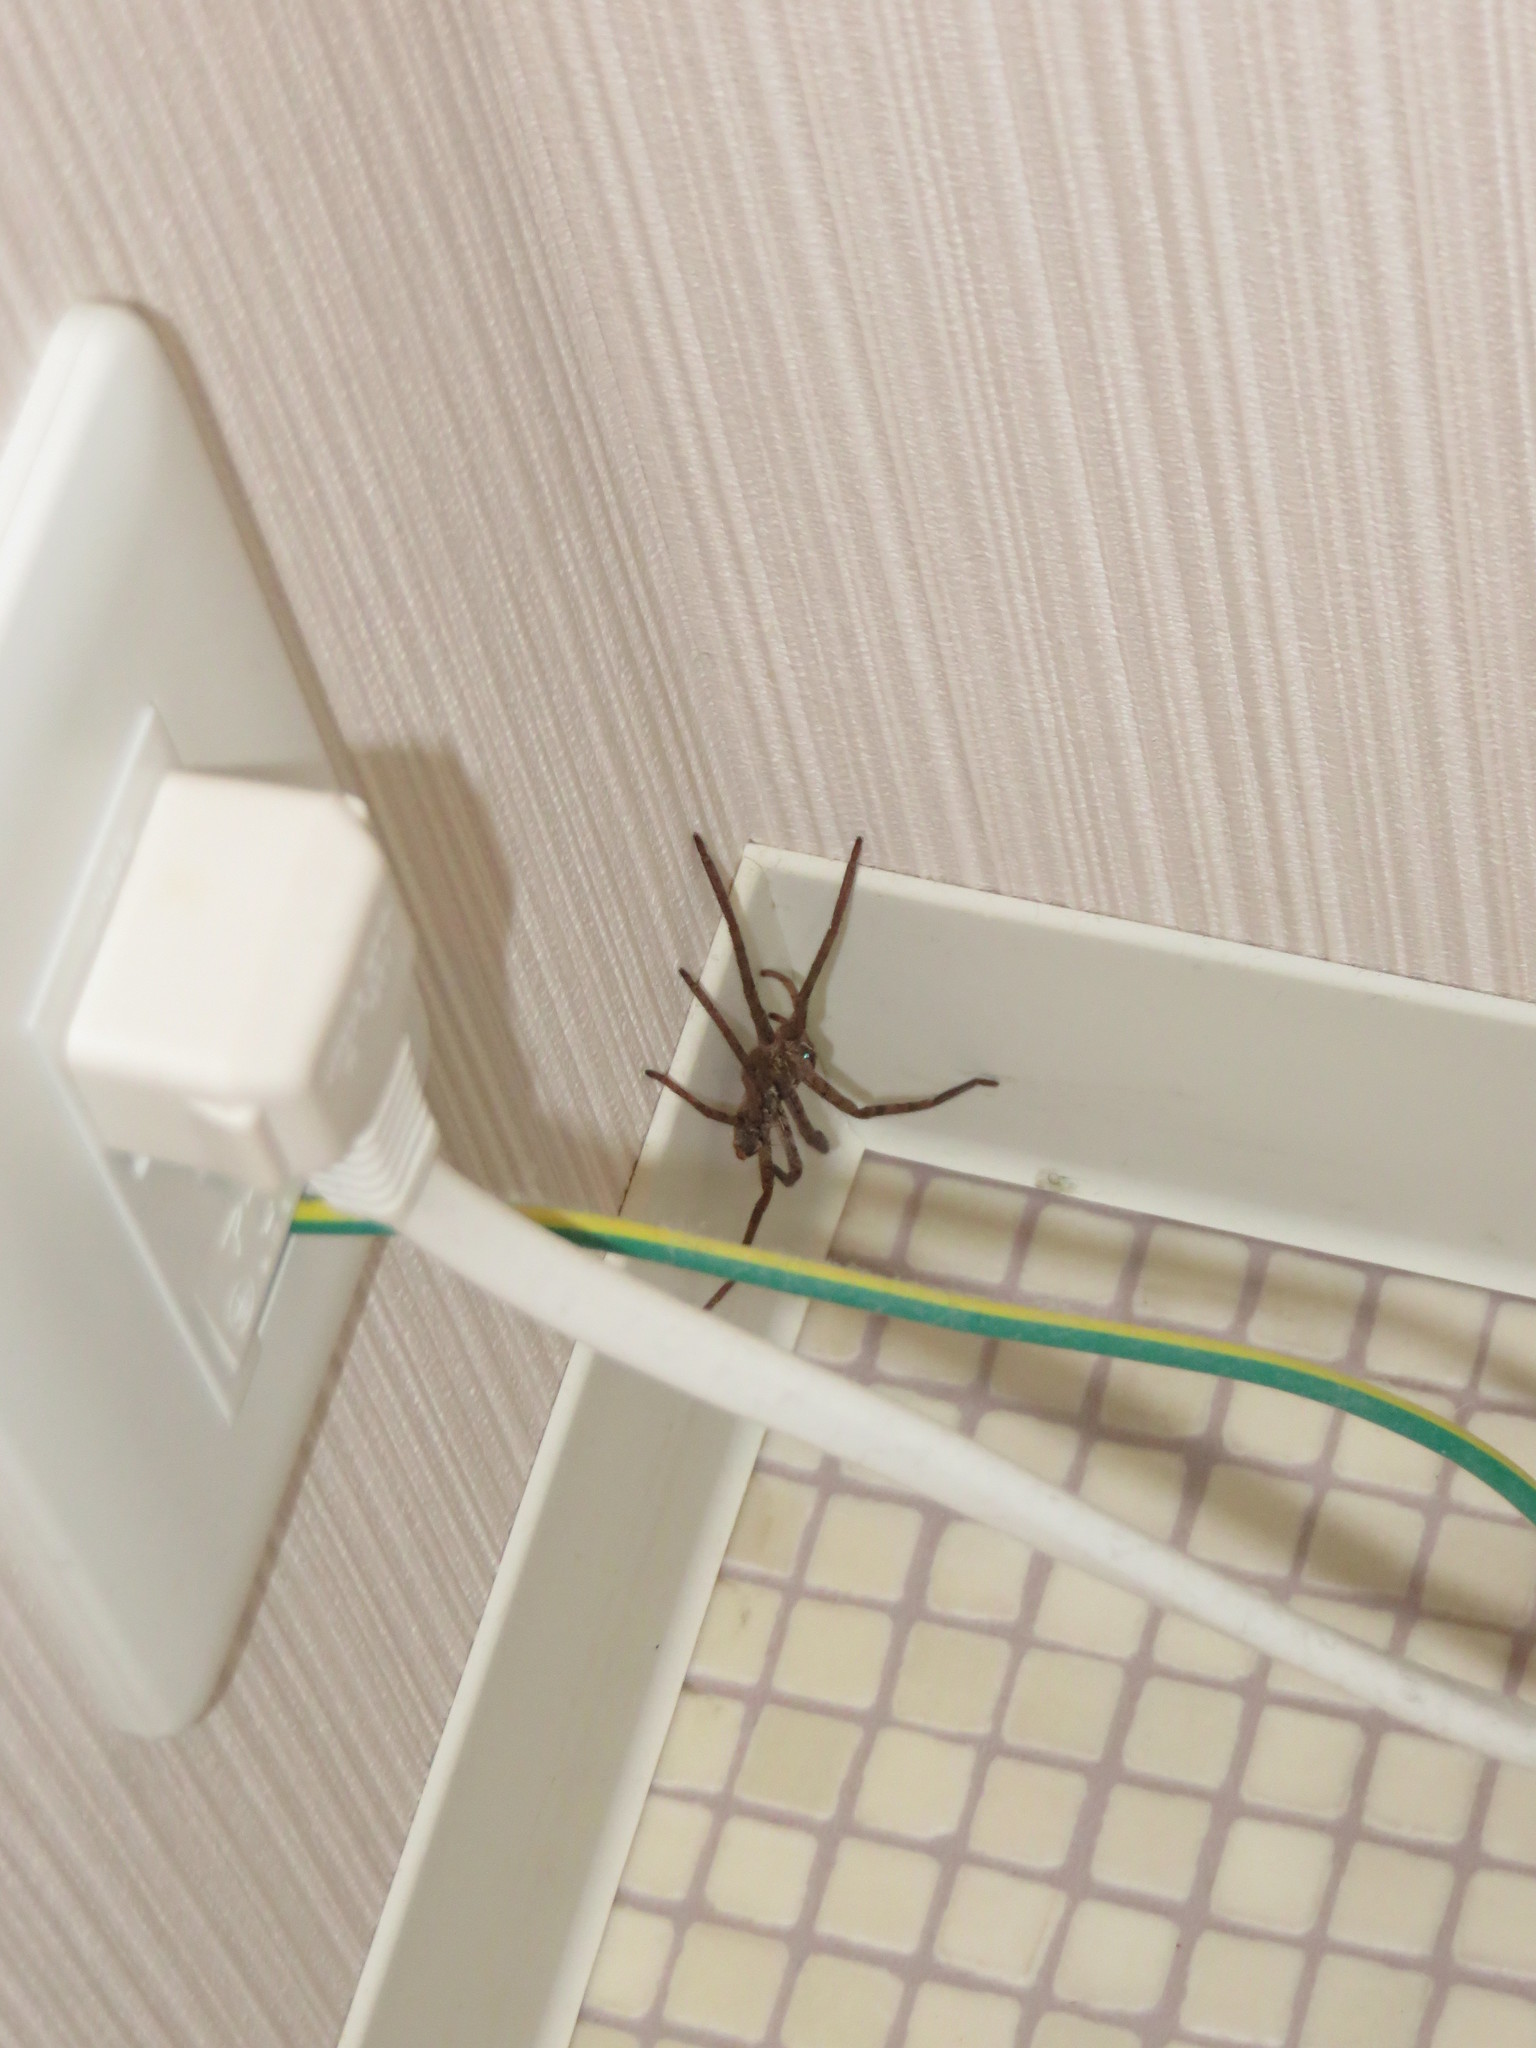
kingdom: Animalia
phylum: Arthropoda
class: Arachnida
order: Araneae
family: Sparassidae
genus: Heteropoda
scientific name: Heteropoda venatoria
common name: Huntsman spider
